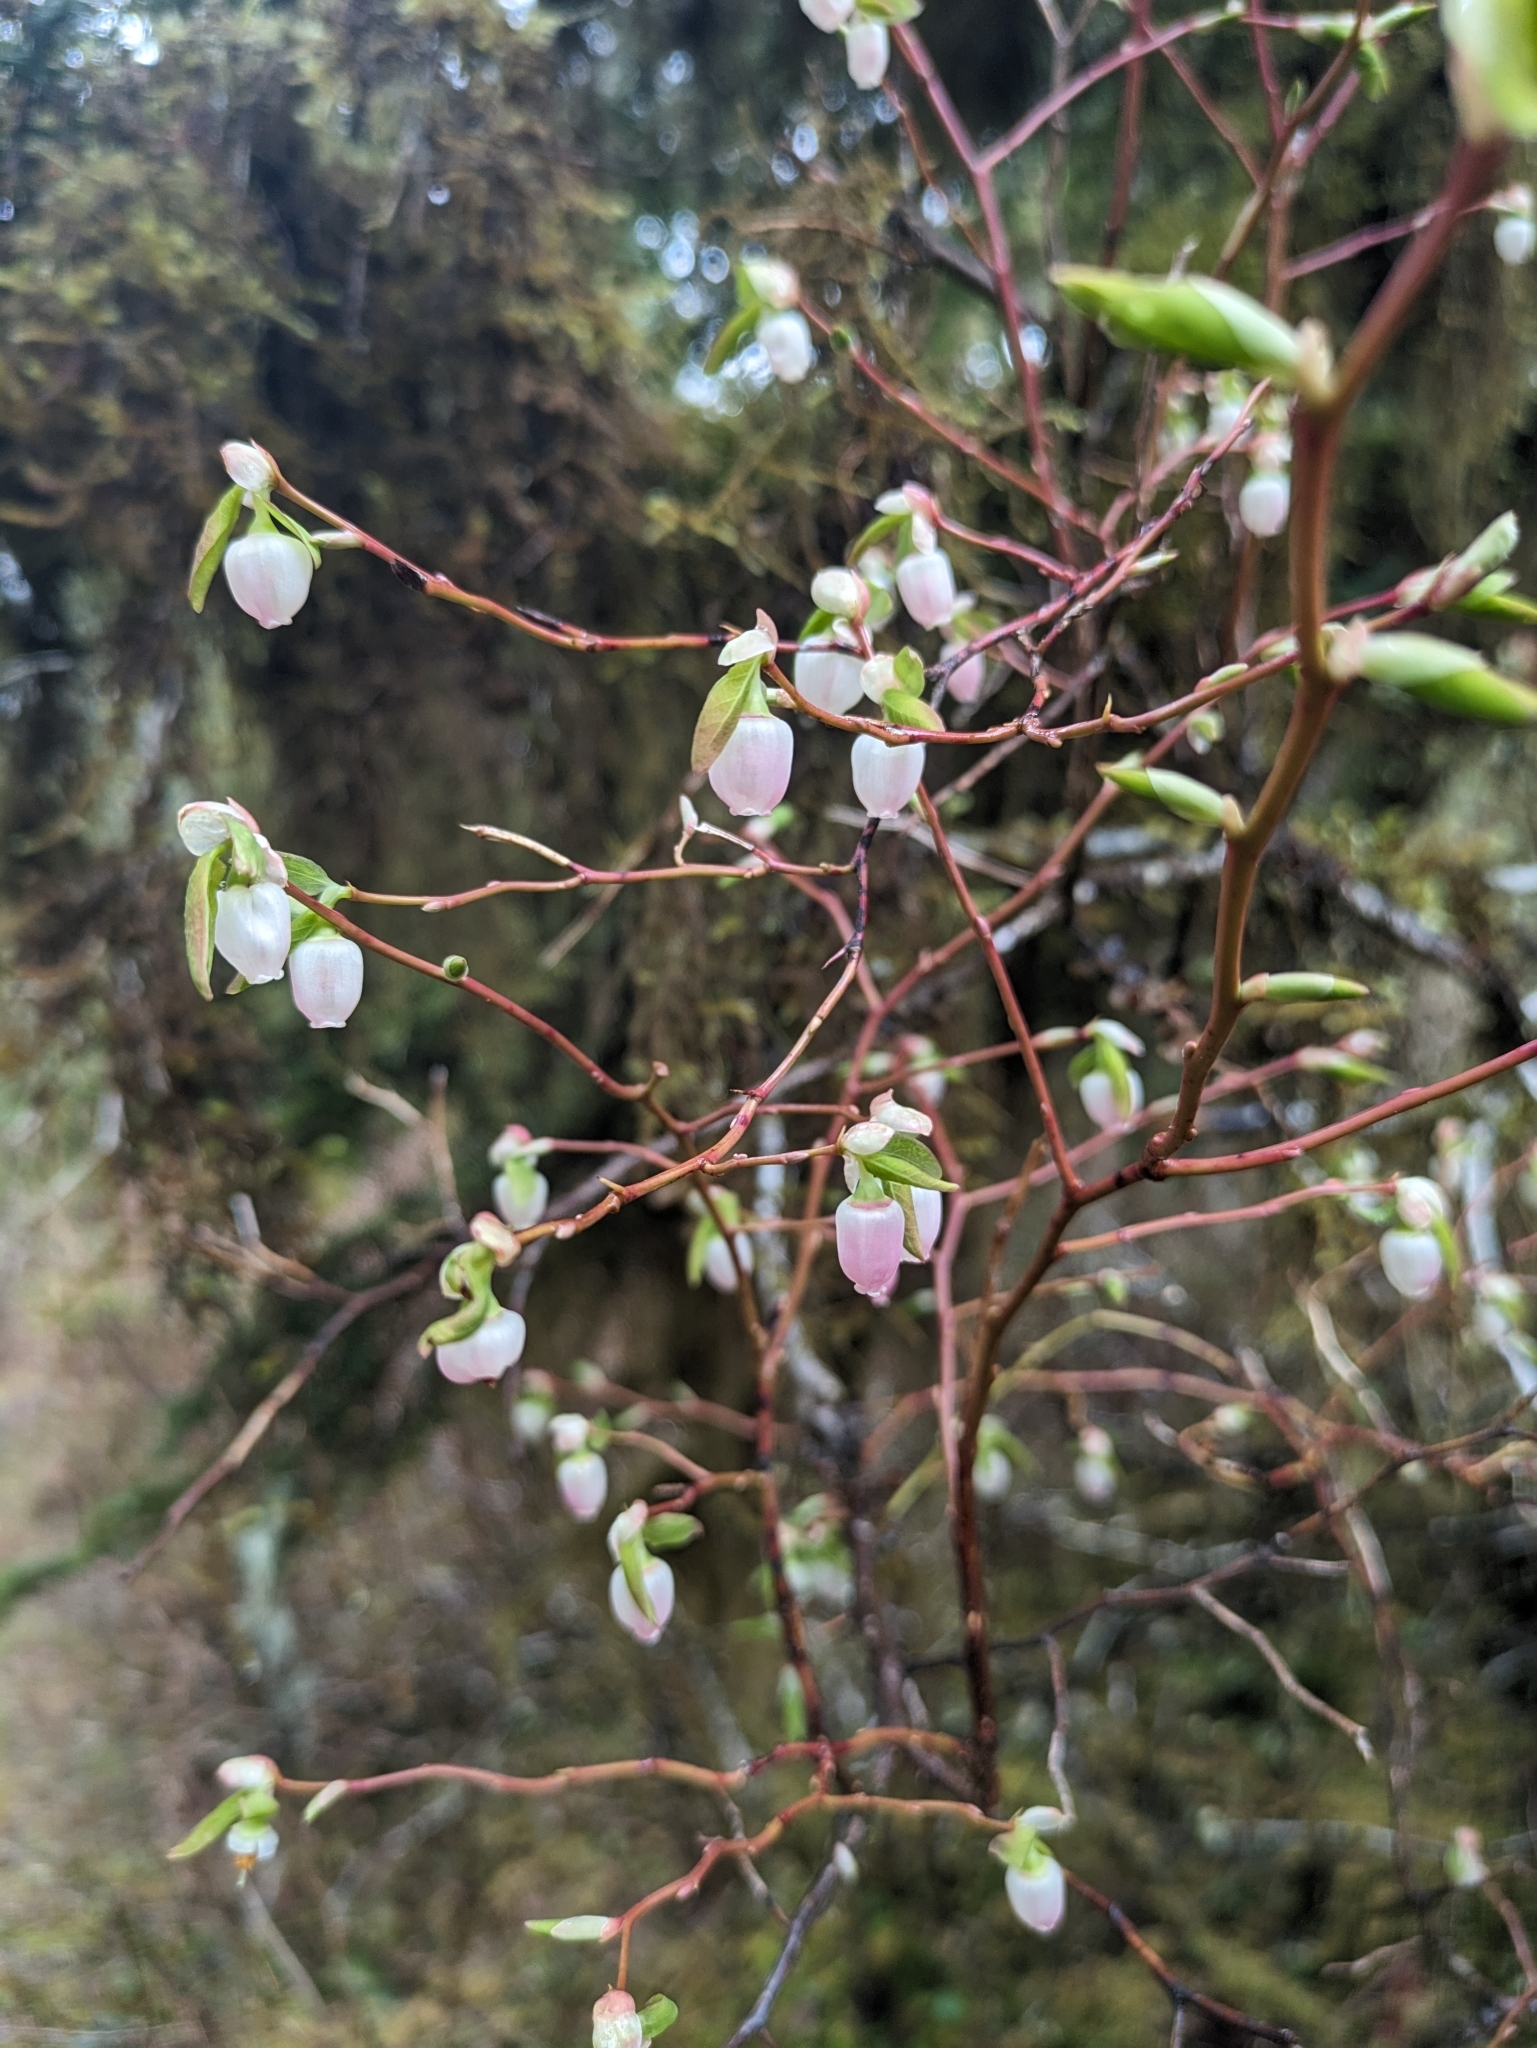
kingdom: Plantae
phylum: Tracheophyta
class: Magnoliopsida
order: Ericales
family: Ericaceae
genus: Vaccinium
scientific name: Vaccinium ovalifolium
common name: Early blueberry
